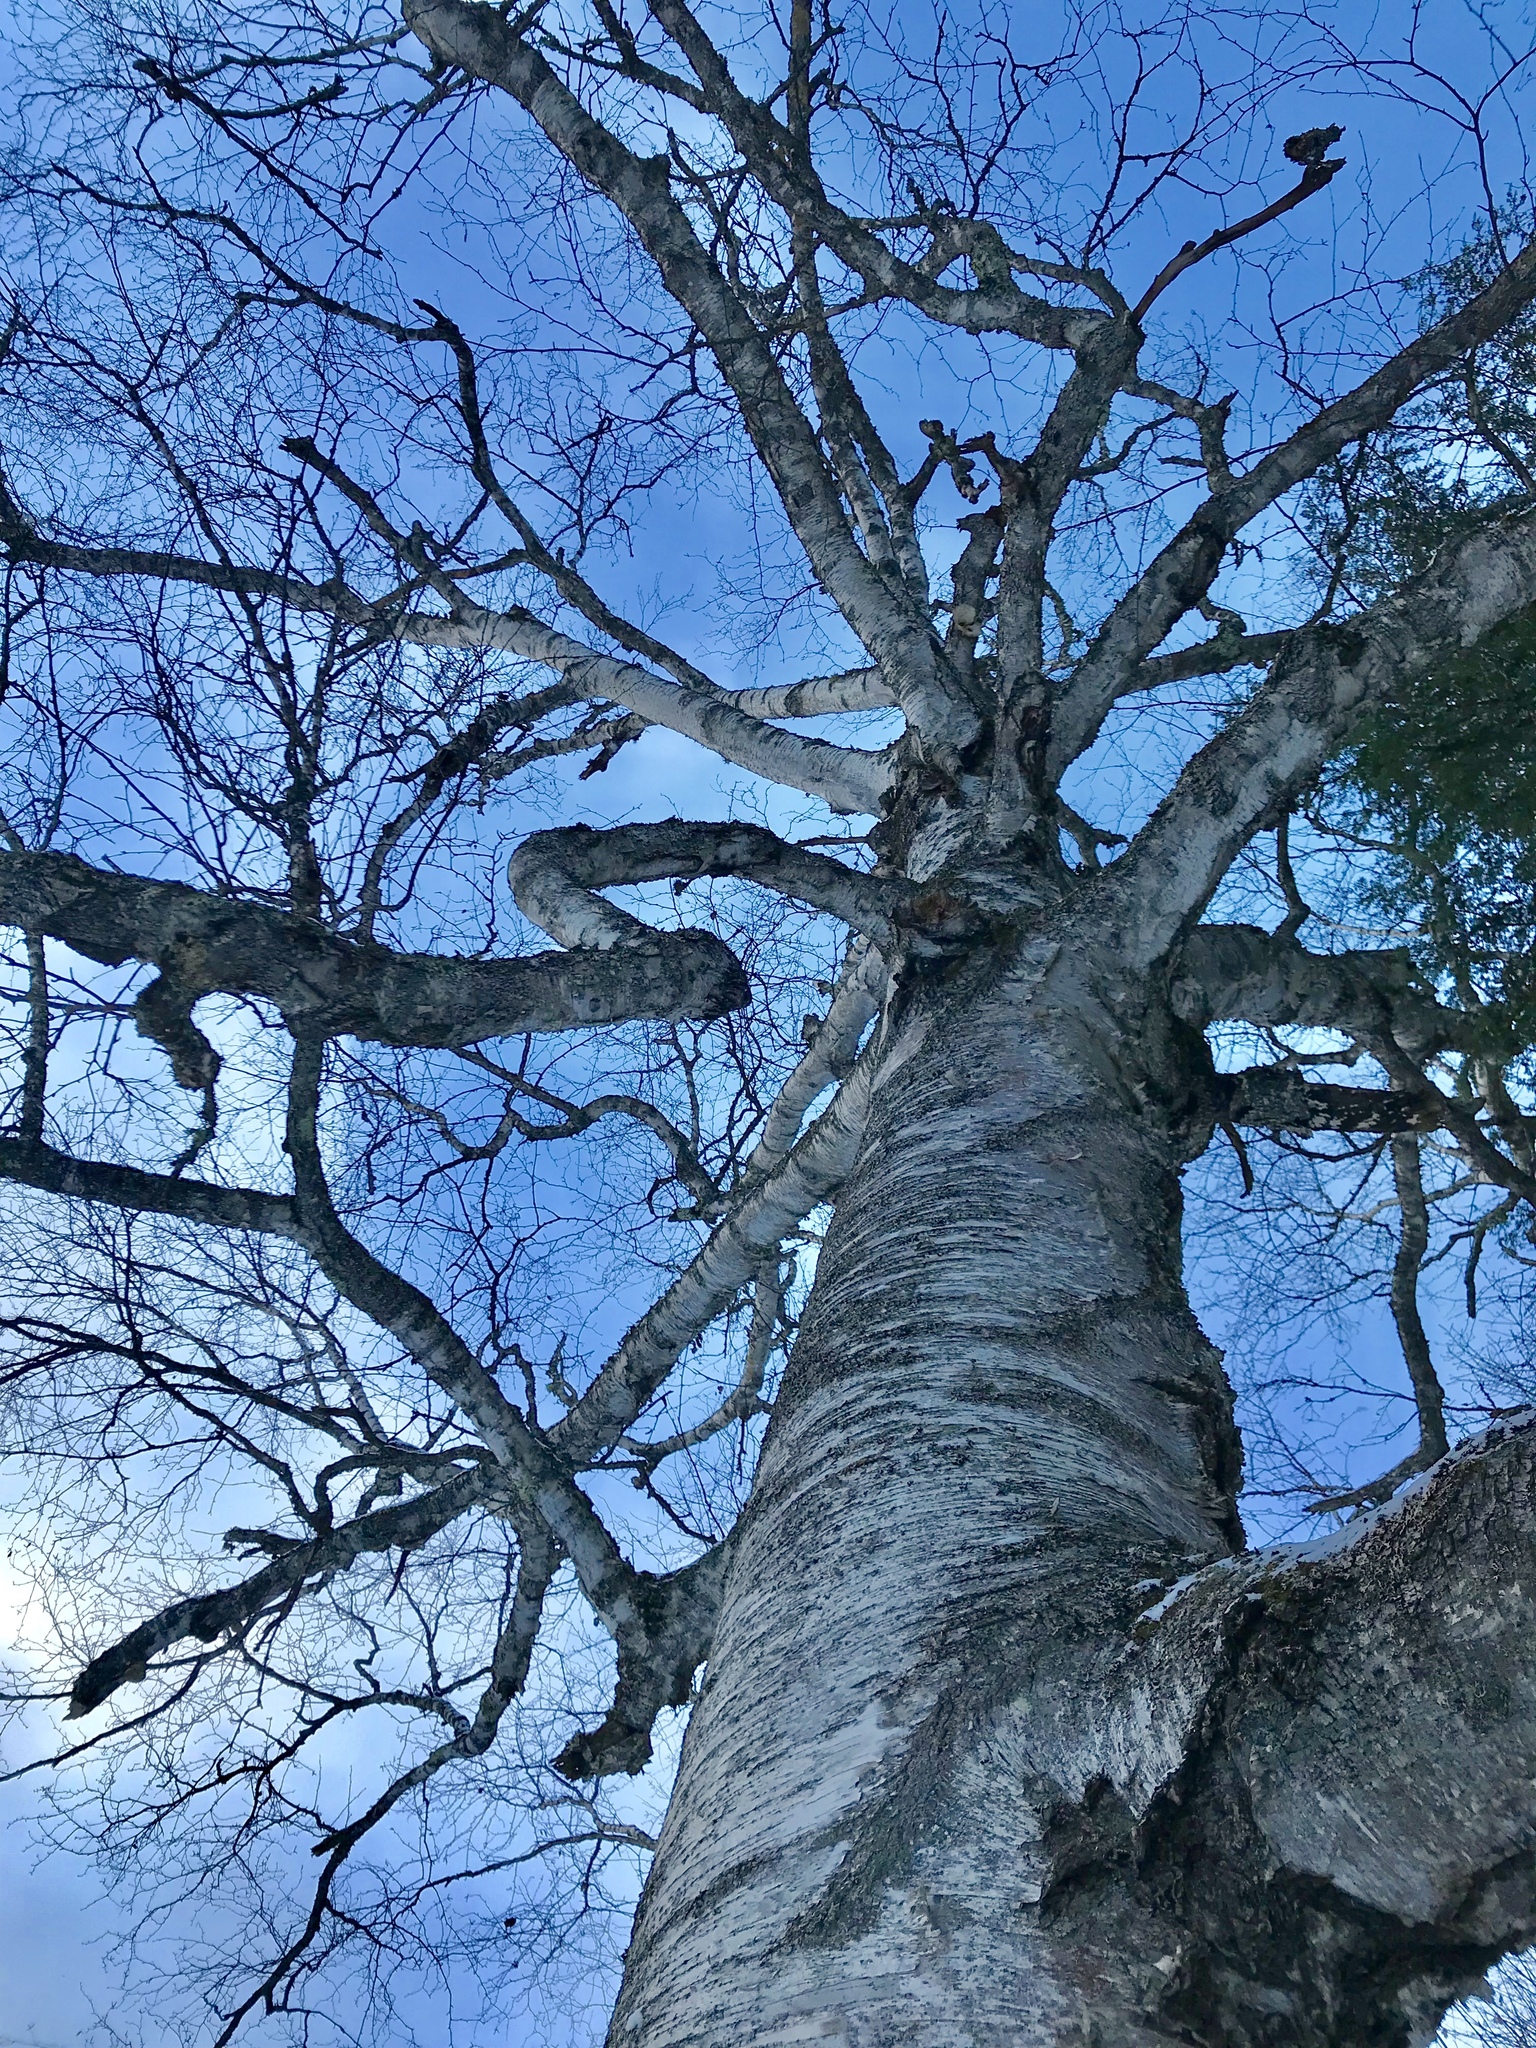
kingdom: Plantae
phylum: Tracheophyta
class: Magnoliopsida
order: Fagales
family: Betulaceae
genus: Betula
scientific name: Betula papyrifera
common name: Paper birch
